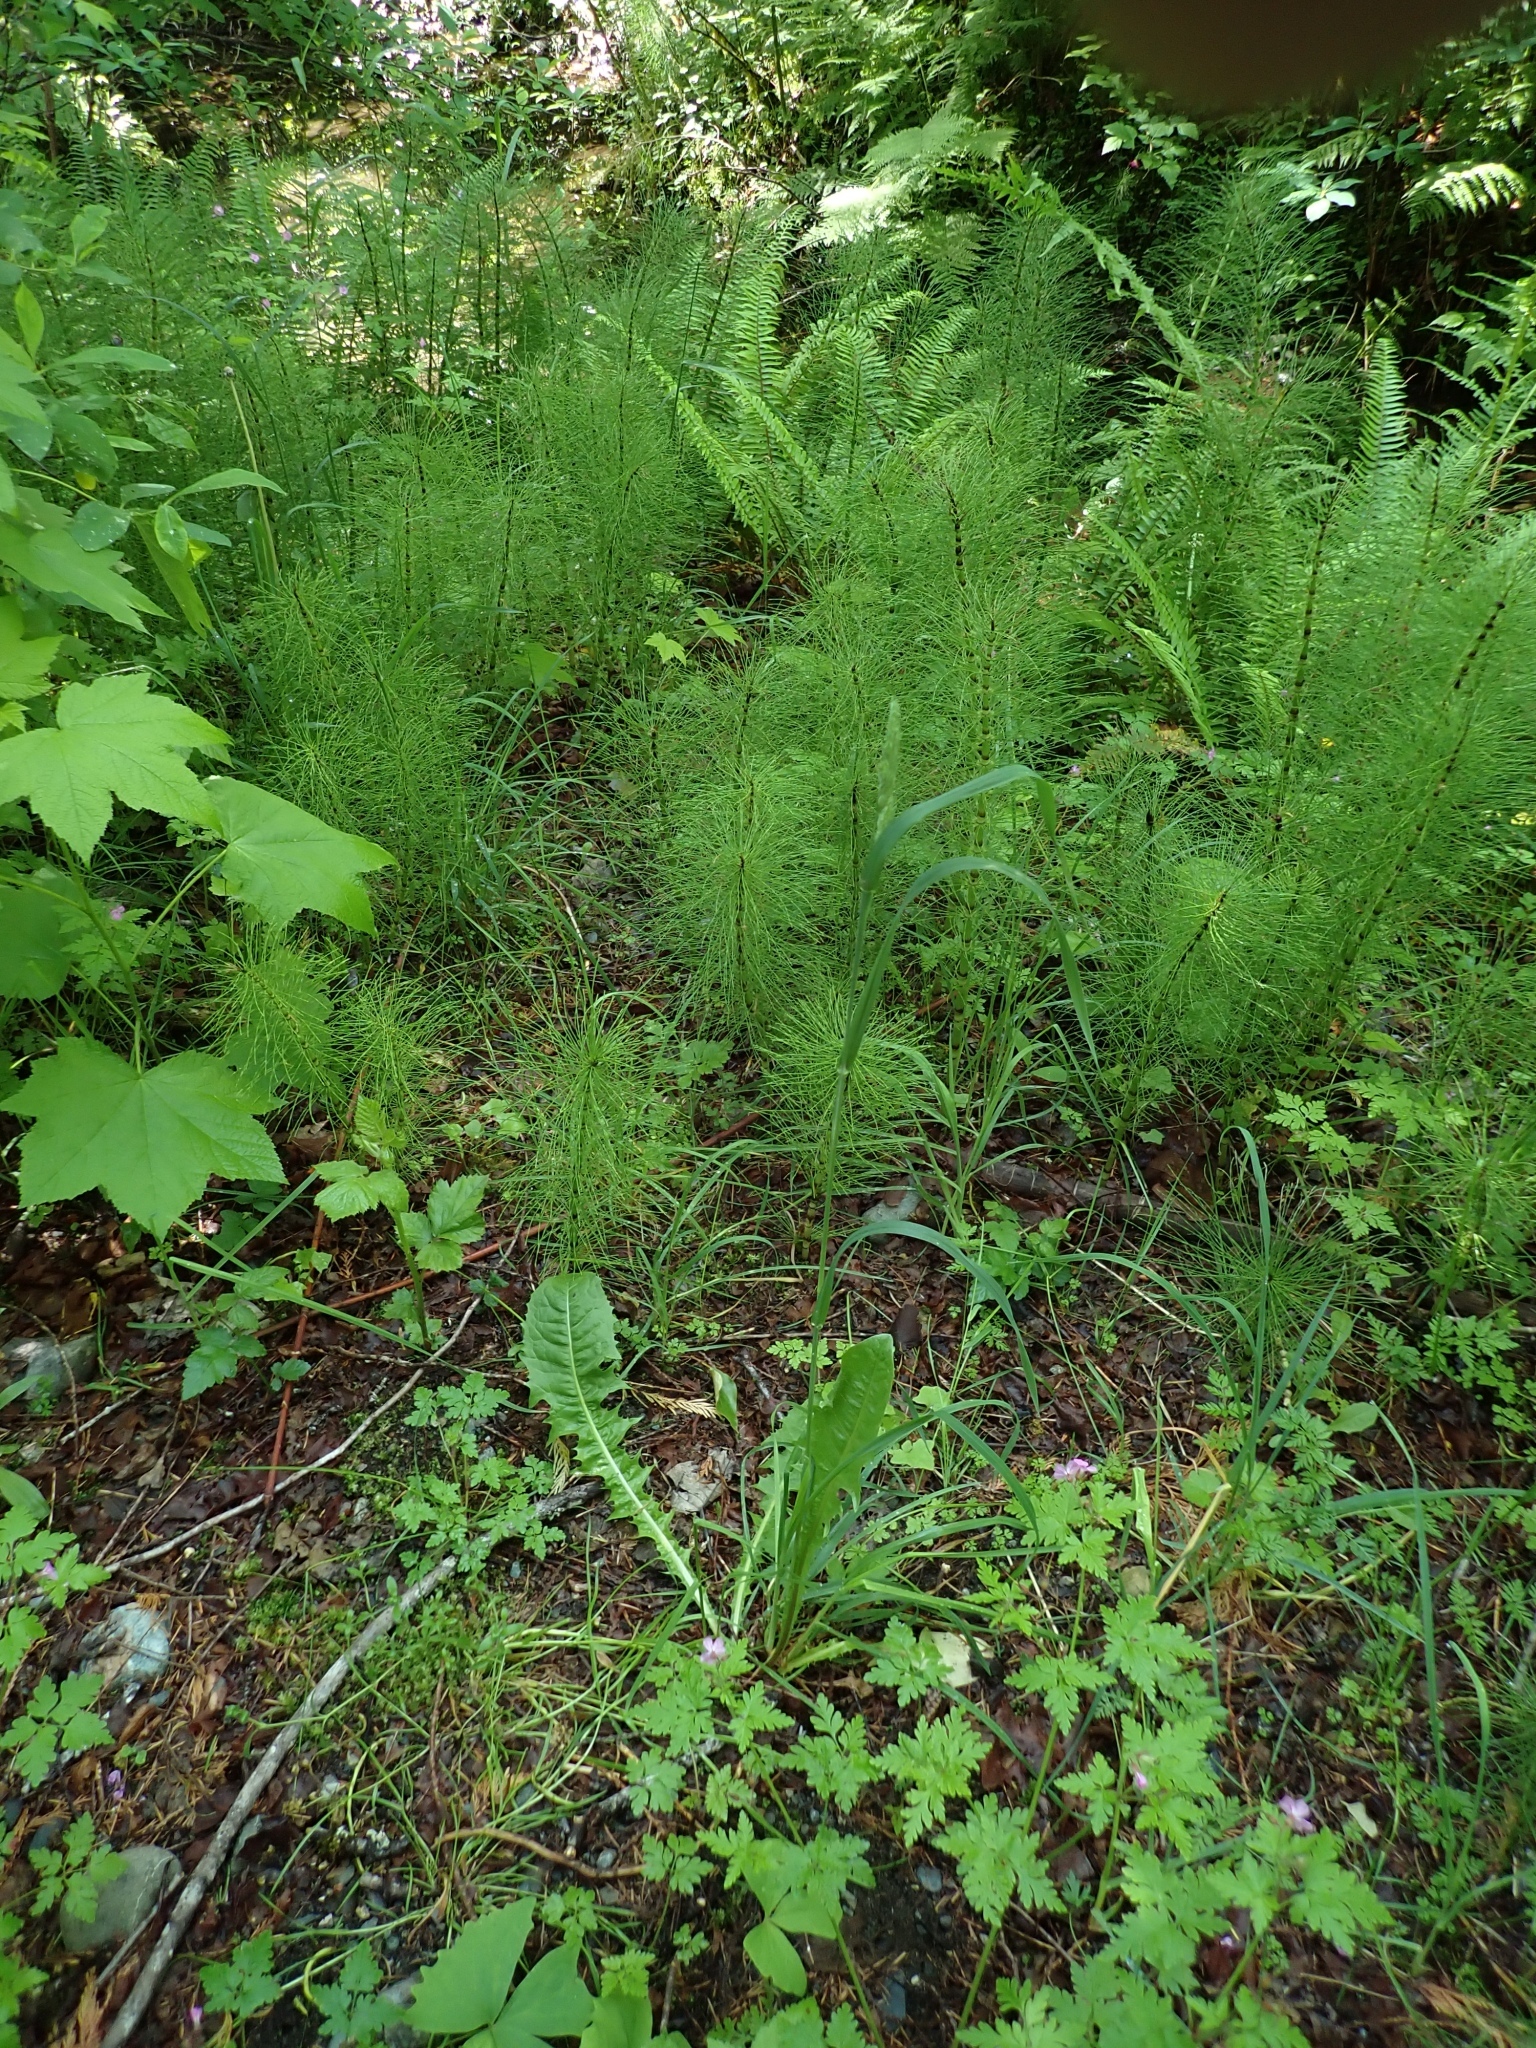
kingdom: Plantae
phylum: Tracheophyta
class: Liliopsida
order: Poales
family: Poaceae
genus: Dactylis
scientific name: Dactylis glomerata
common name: Orchardgrass
